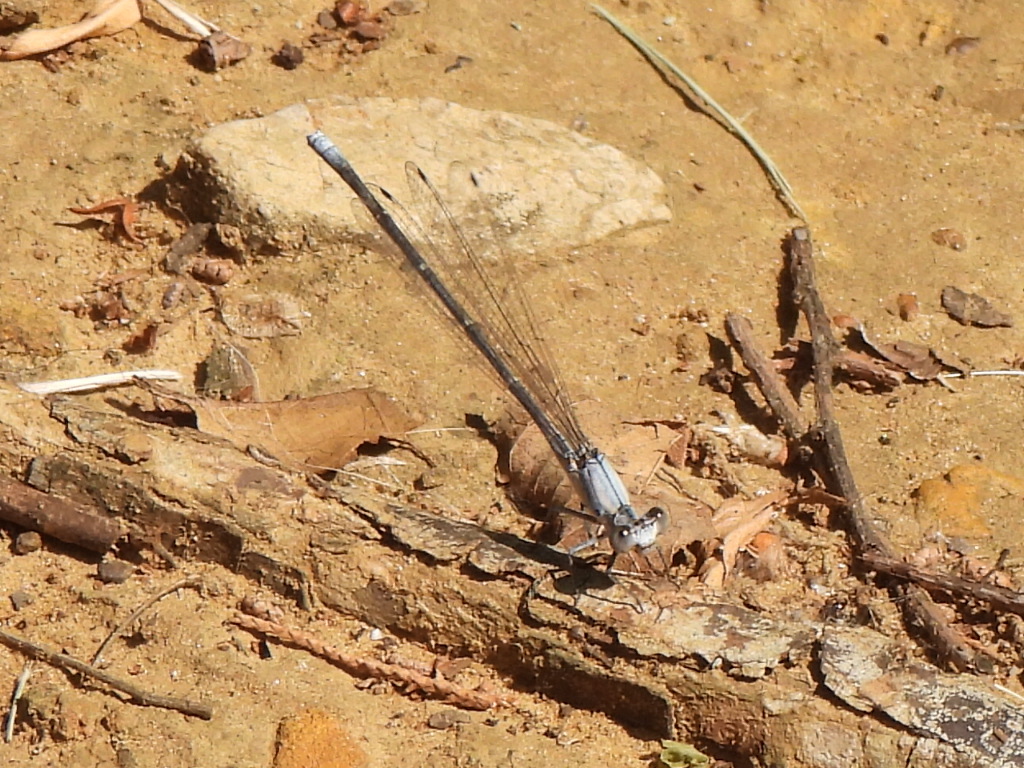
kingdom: Animalia
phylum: Arthropoda
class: Insecta
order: Odonata
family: Coenagrionidae
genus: Argia
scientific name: Argia moesta
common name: Powdered dancer
